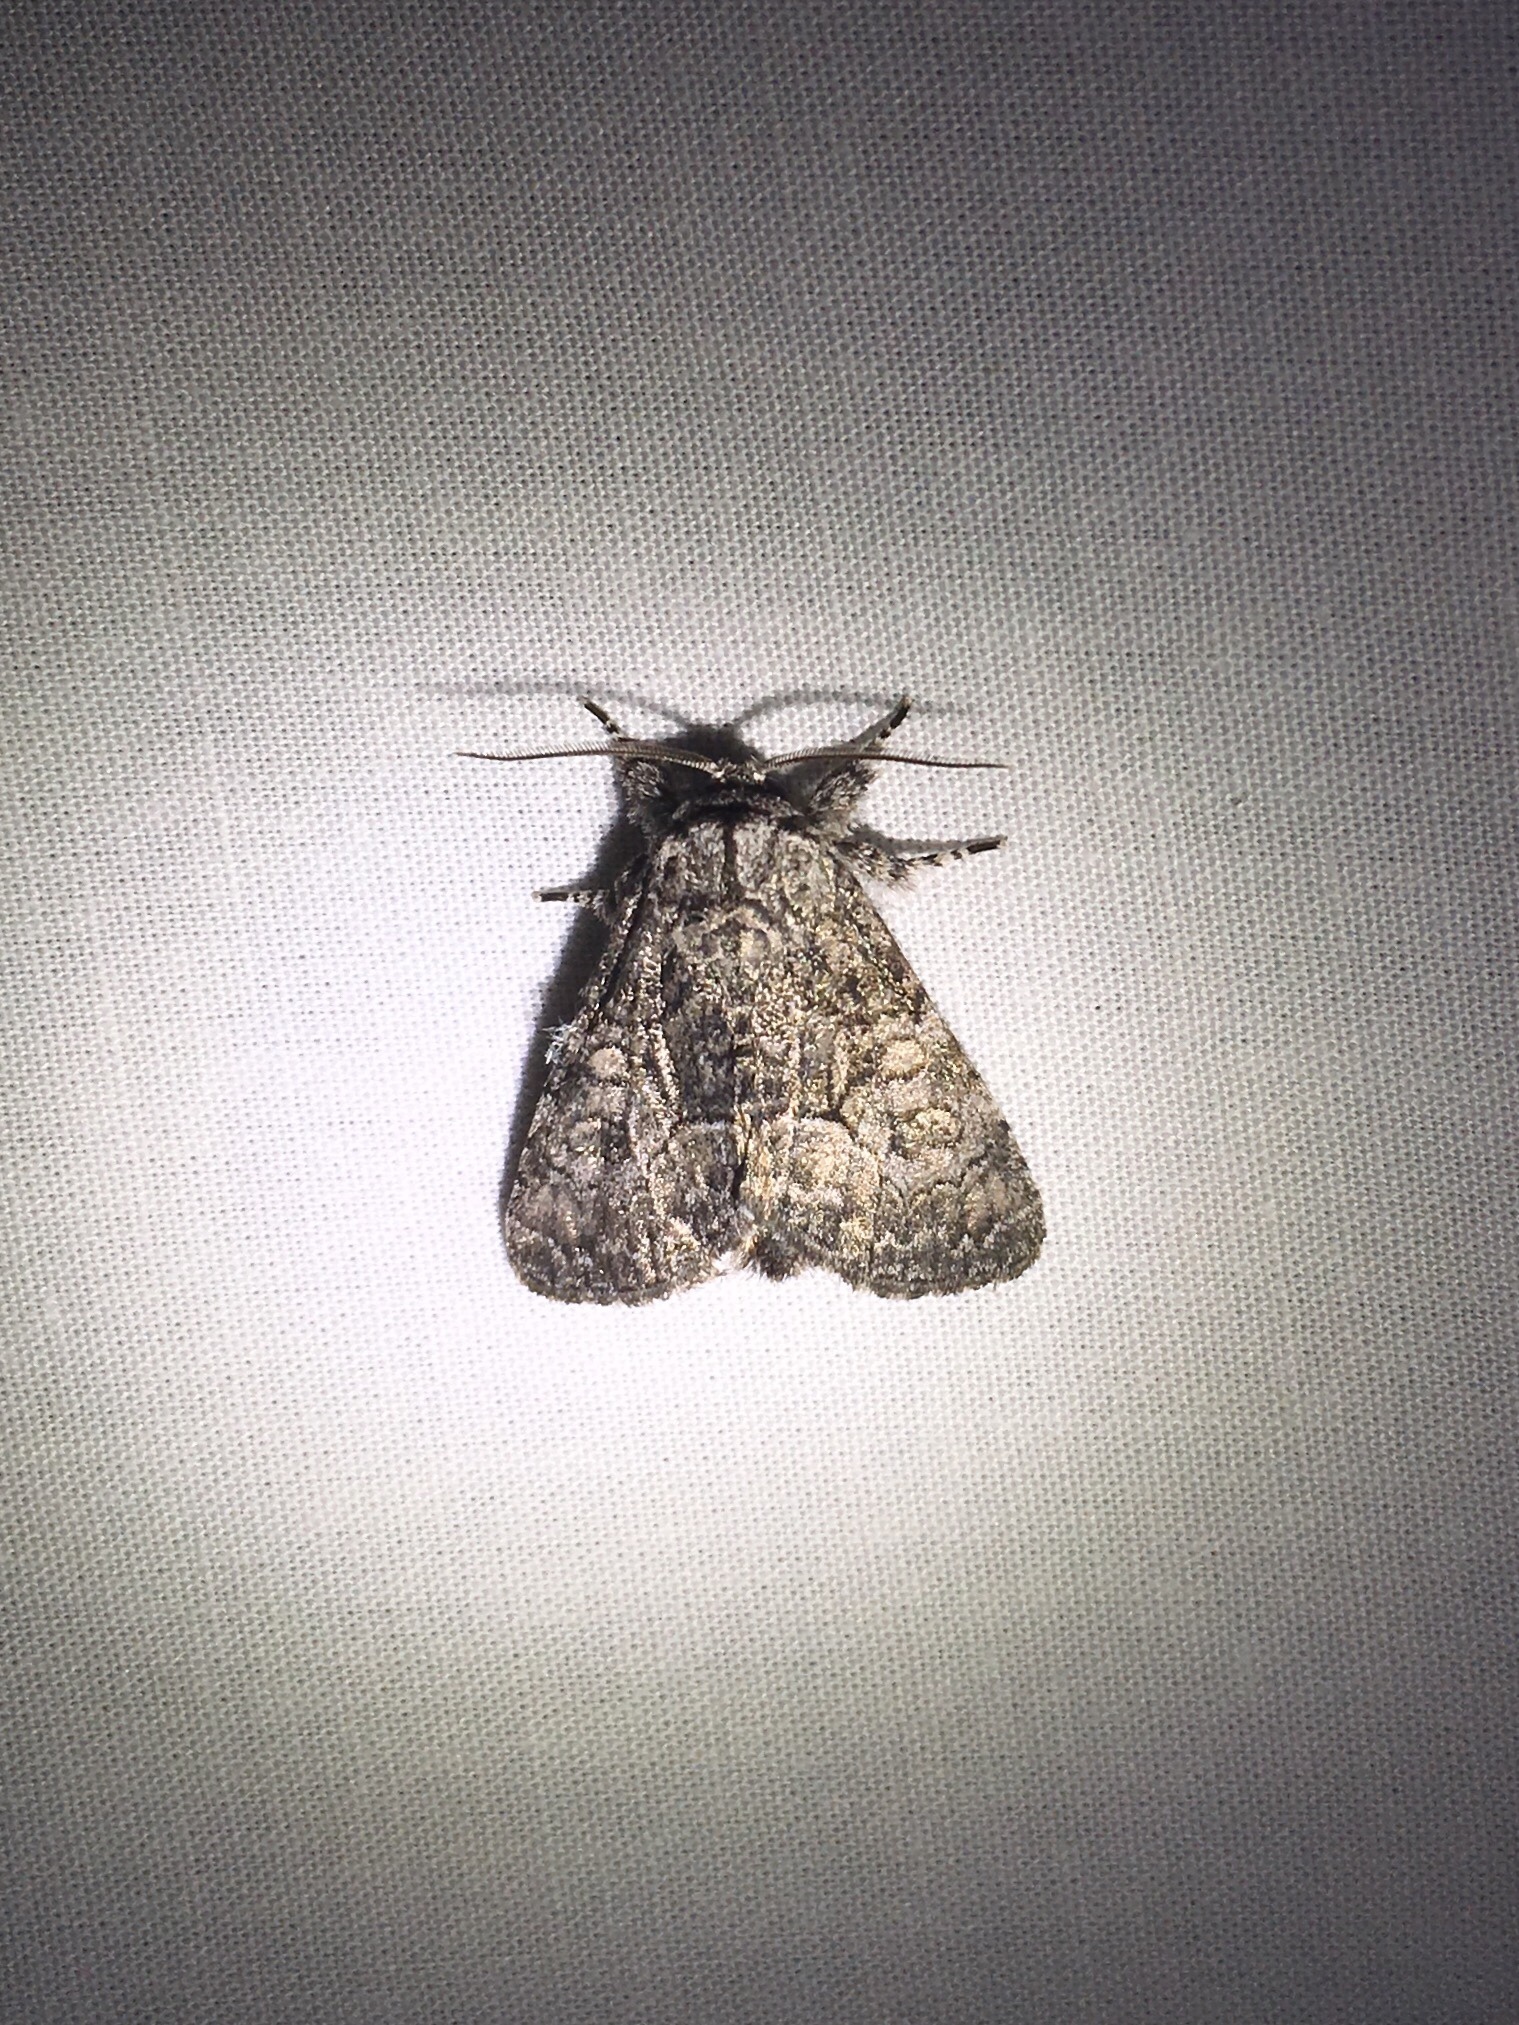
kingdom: Animalia
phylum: Arthropoda
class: Insecta
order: Lepidoptera
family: Noctuidae
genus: Raphia
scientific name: Raphia frater
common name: Brother
